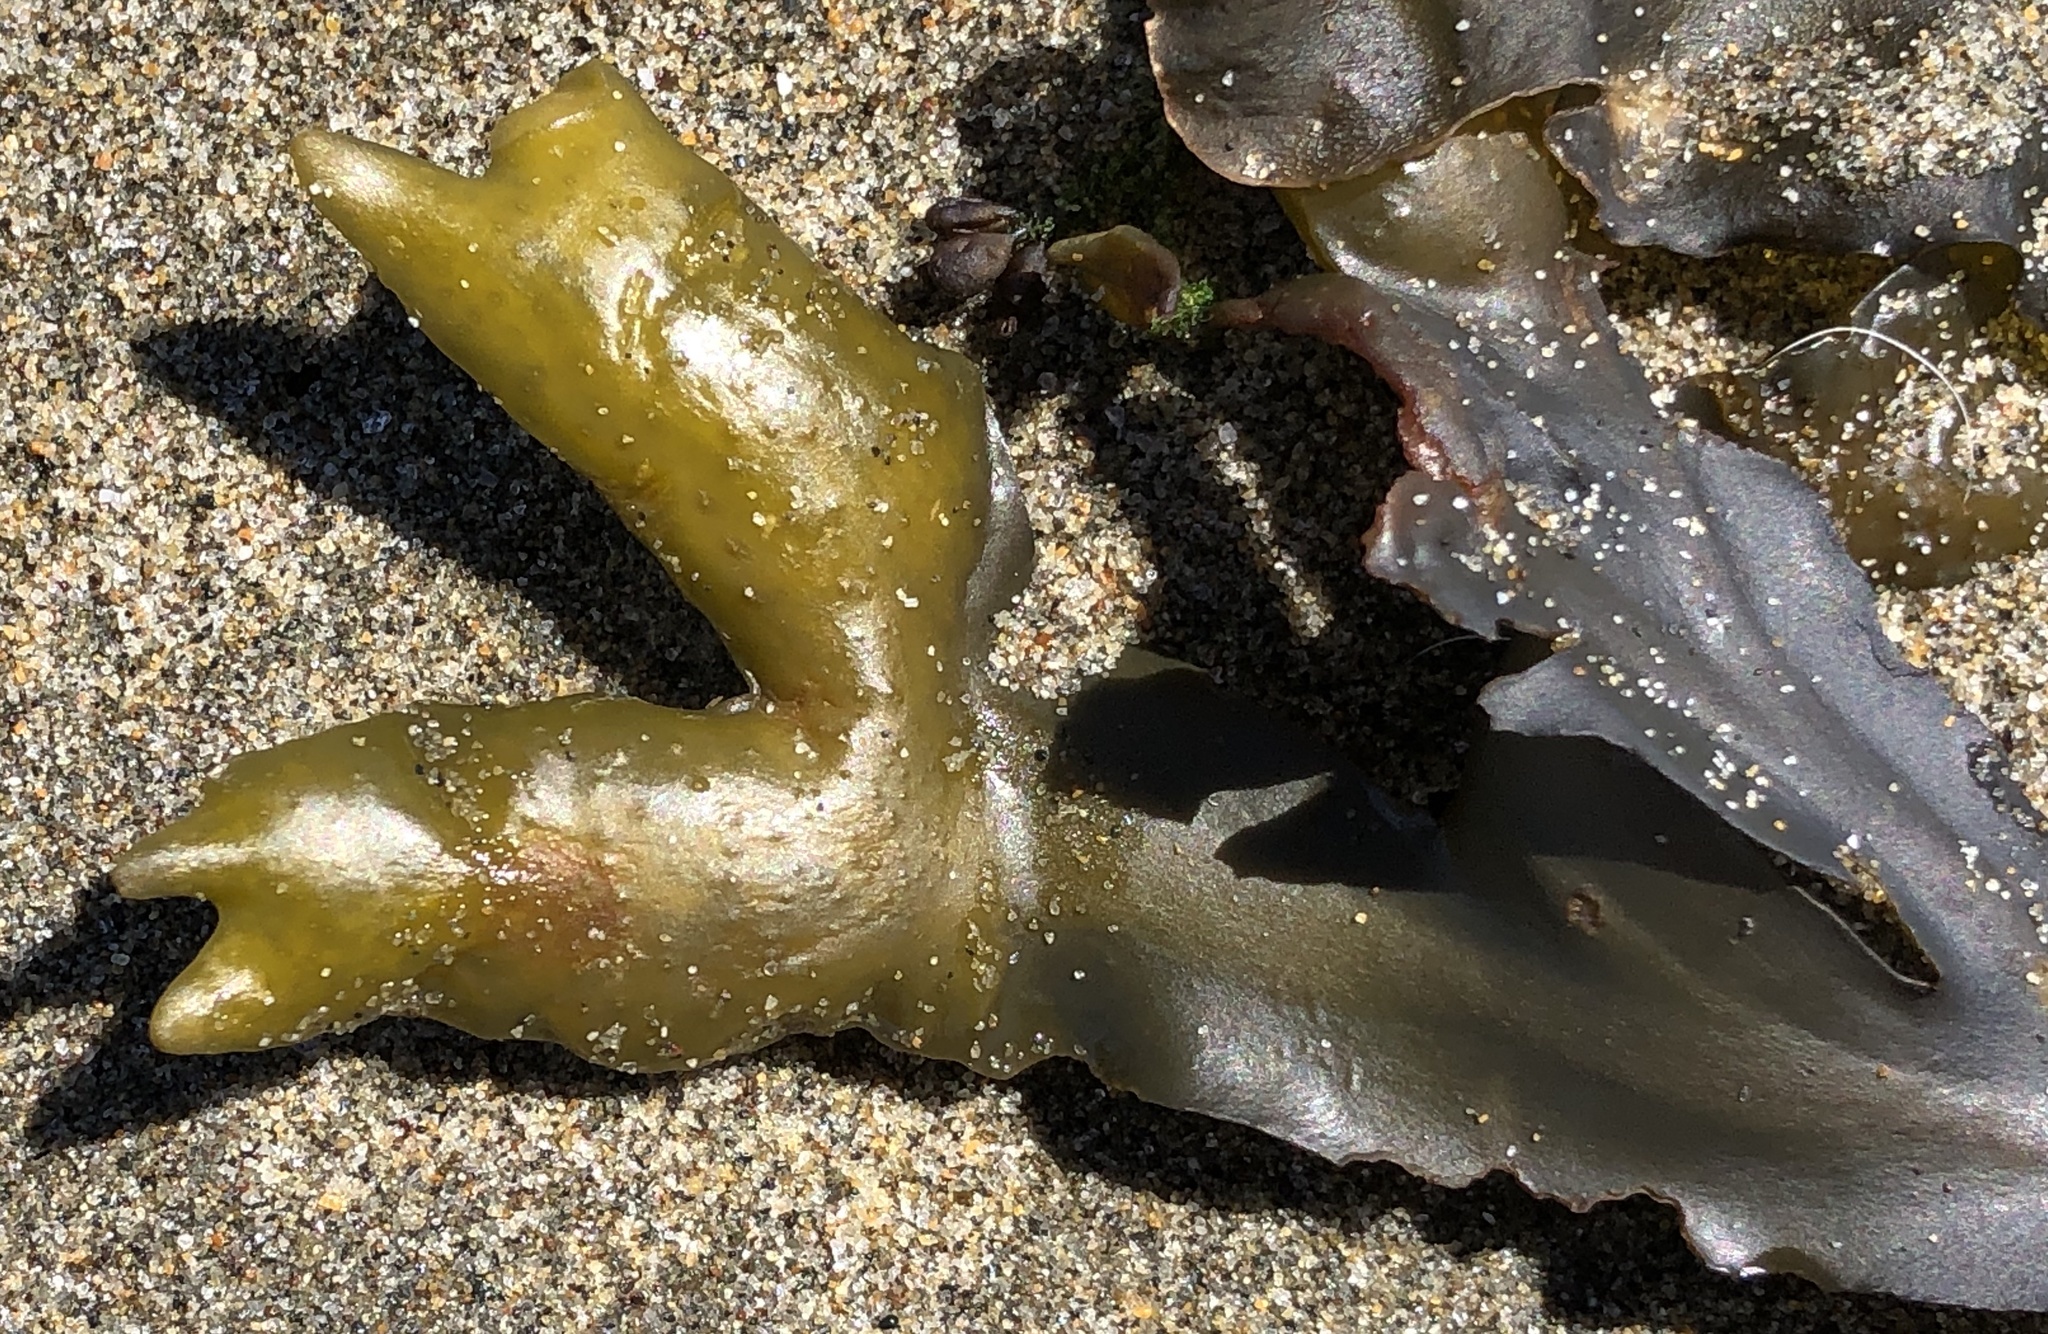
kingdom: Chromista
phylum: Ochrophyta
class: Phaeophyceae
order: Fucales
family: Fucaceae
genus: Fucus
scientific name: Fucus distichus
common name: Rockweed
